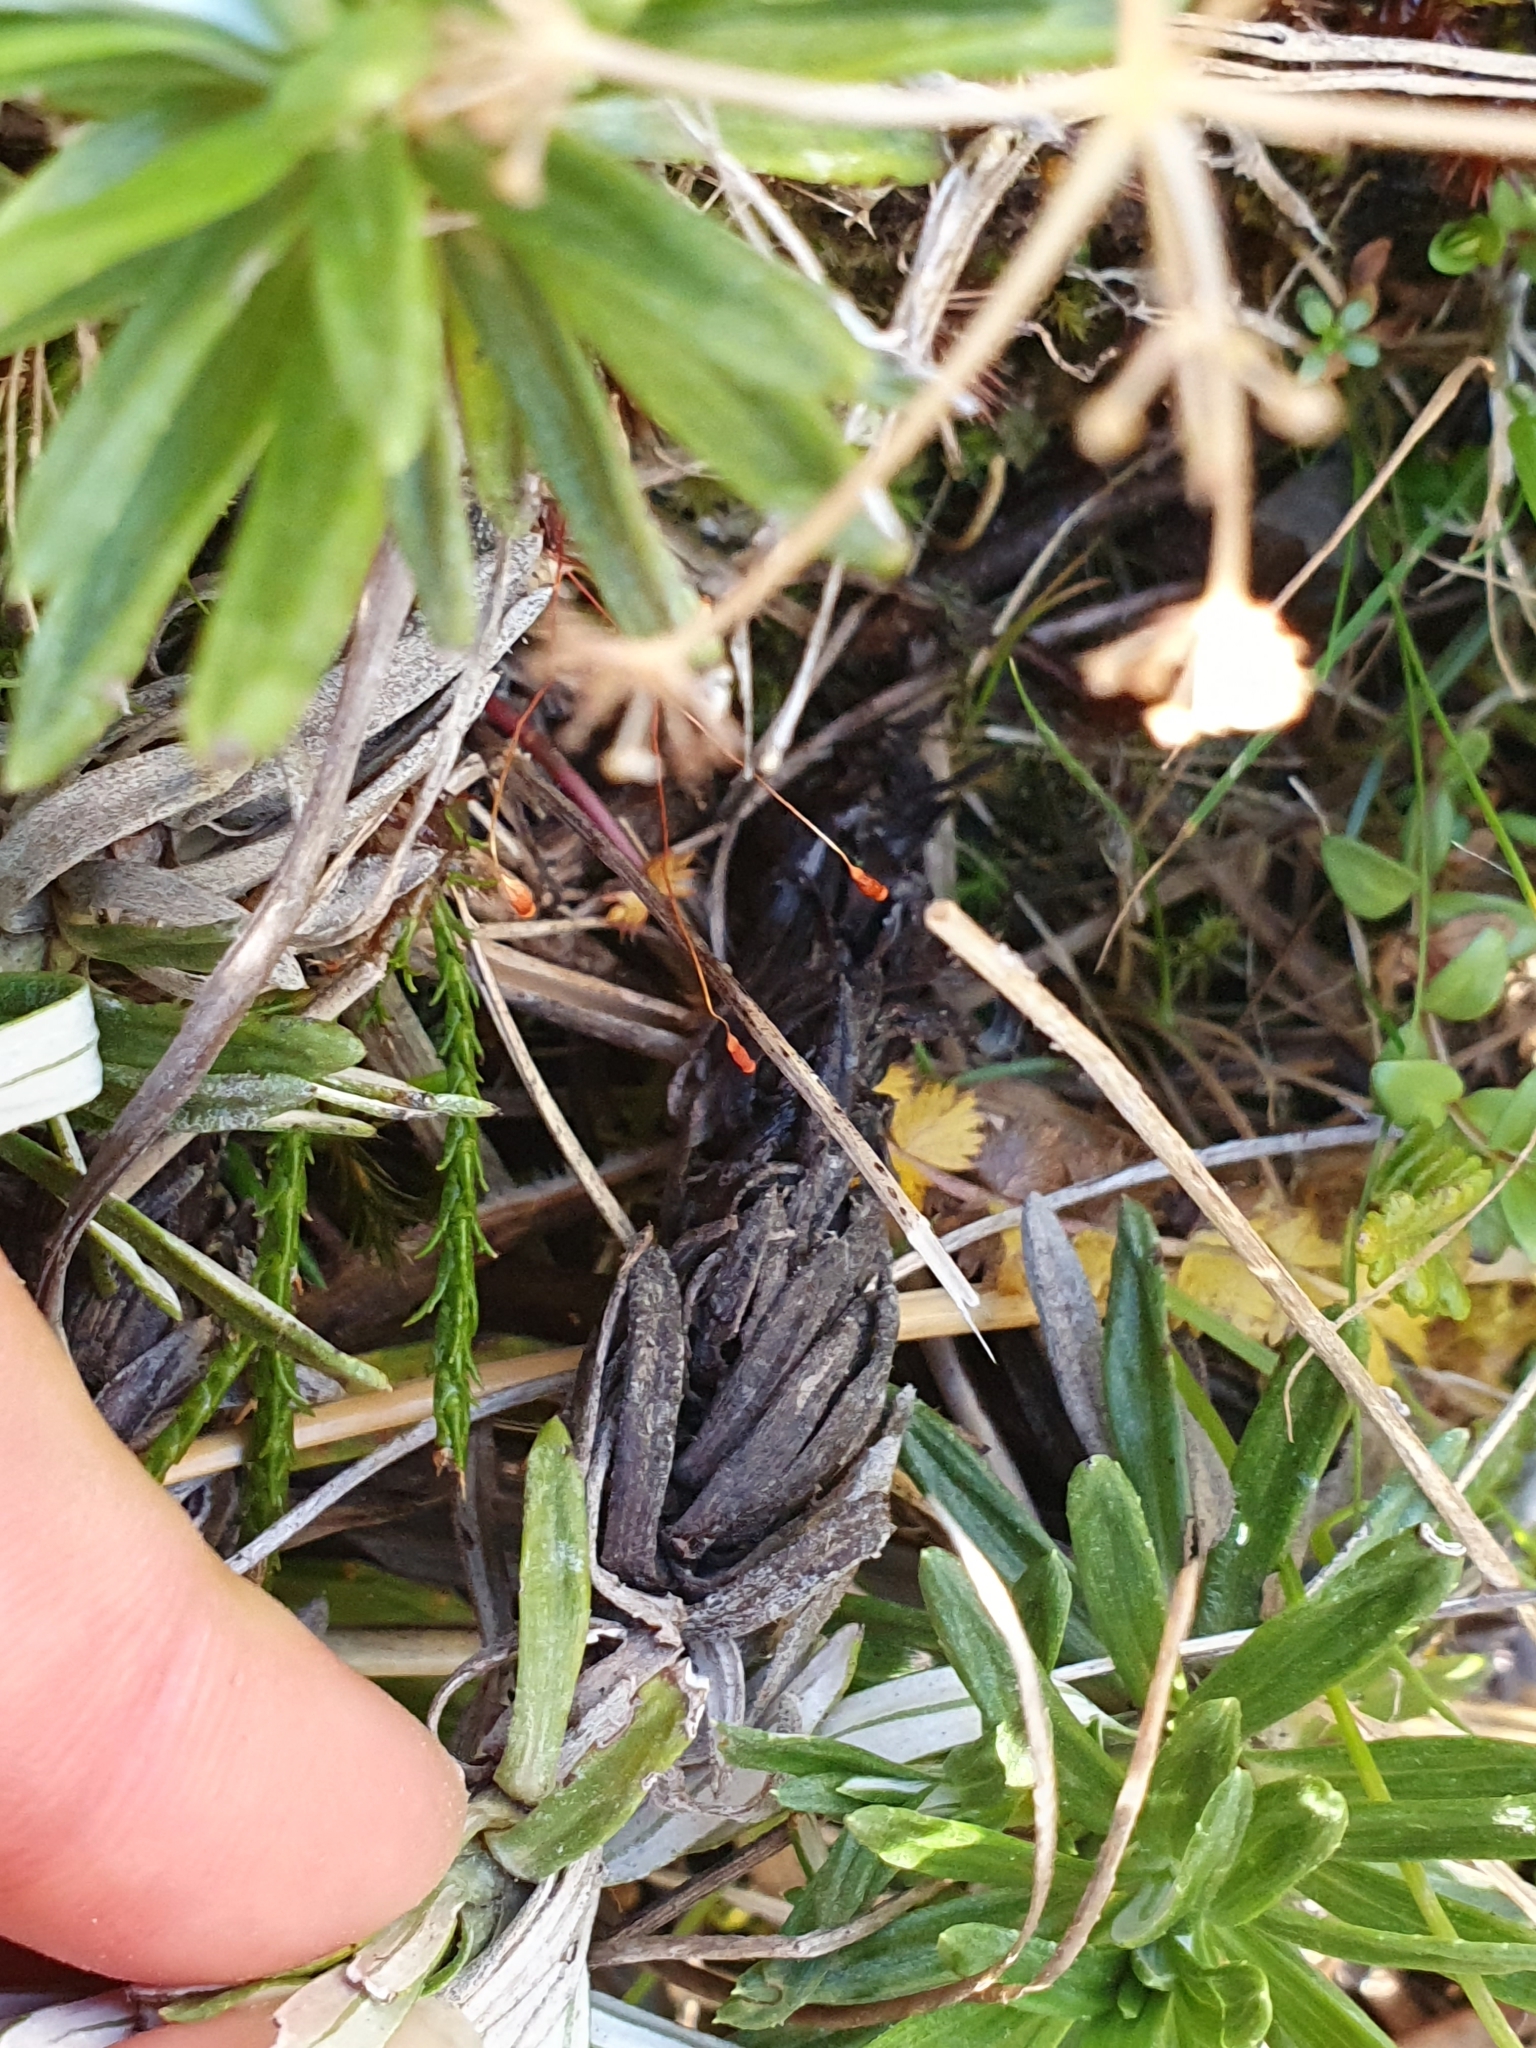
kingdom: Plantae
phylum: Tracheophyta
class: Magnoliopsida
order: Asterales
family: Asteraceae
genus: Celmisia
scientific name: Celmisia walkeri
